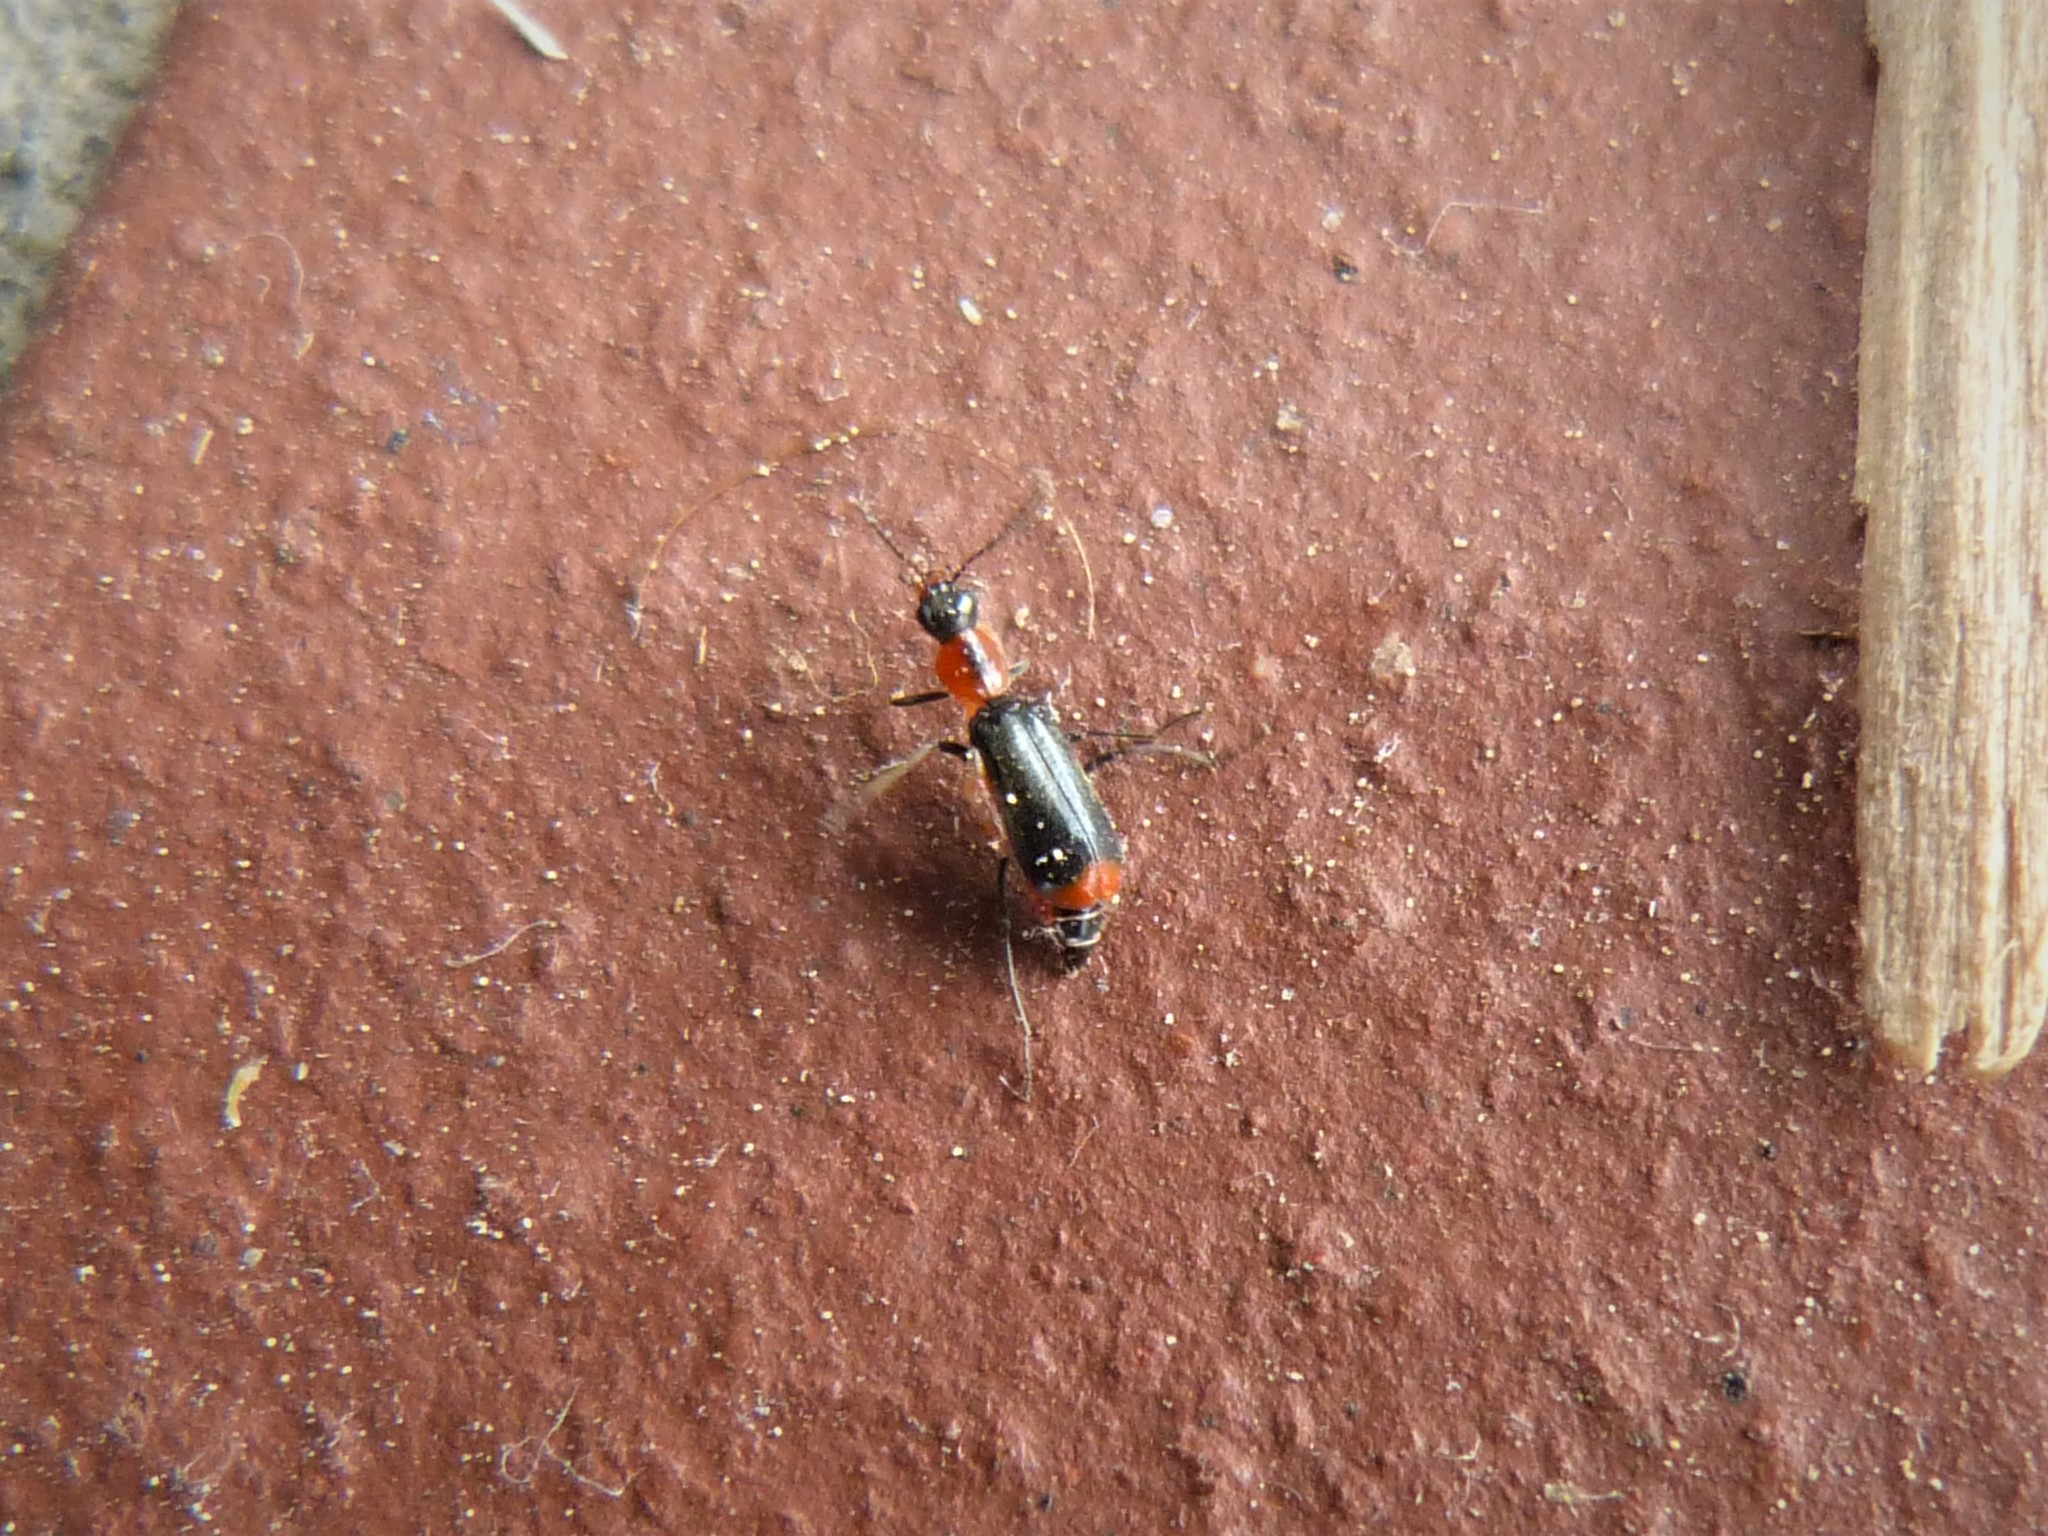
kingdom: Animalia
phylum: Arthropoda
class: Insecta
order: Coleoptera
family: Malachiidae
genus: Attalus
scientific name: Attalus minimus
